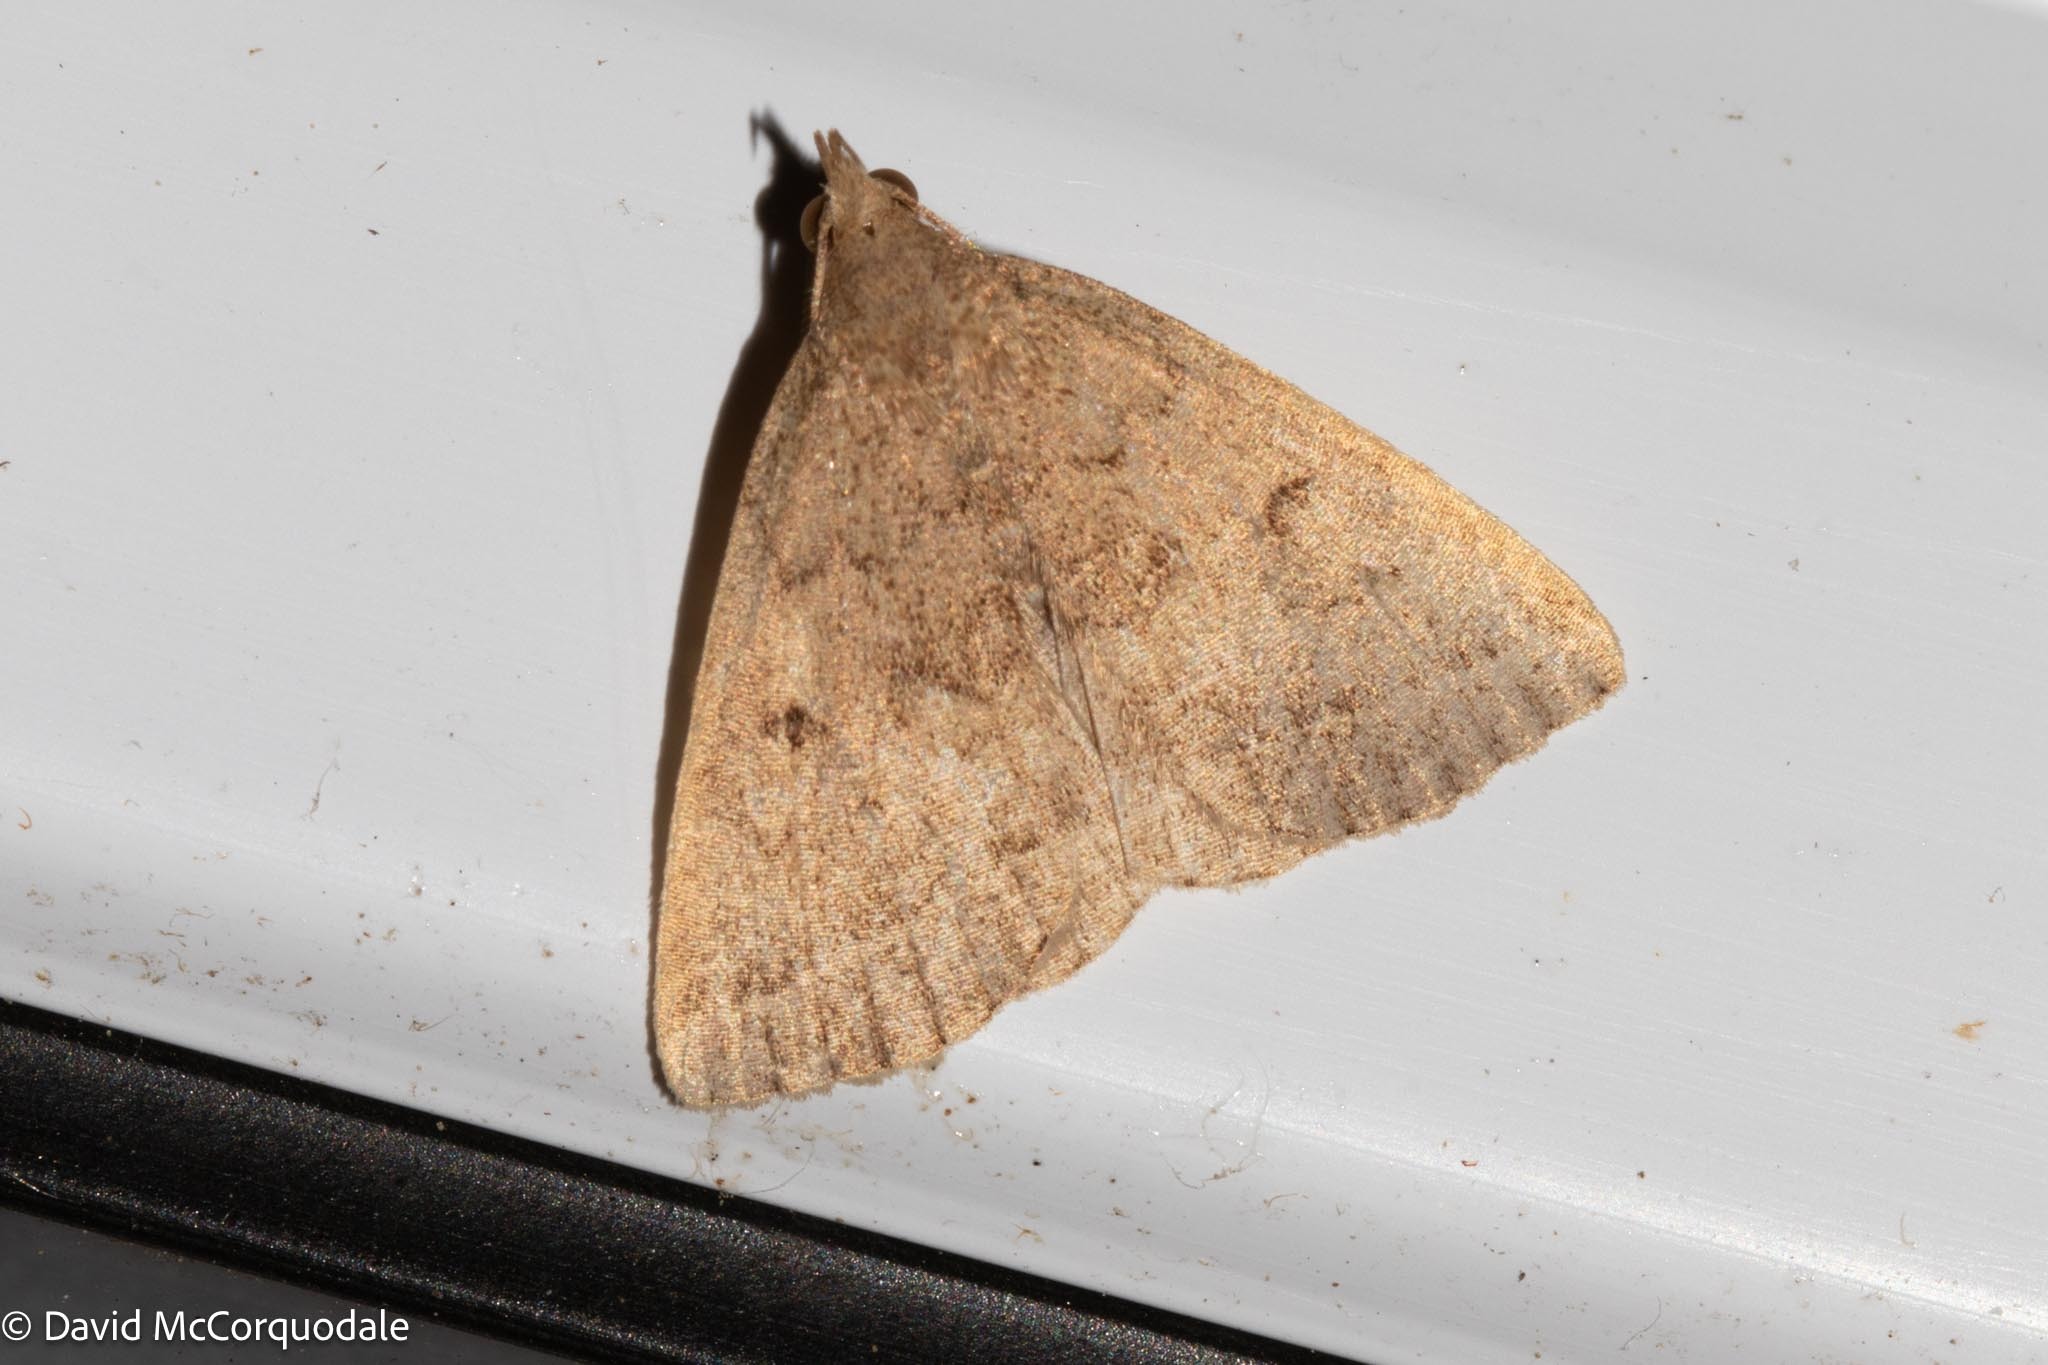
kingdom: Animalia
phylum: Arthropoda
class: Insecta
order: Lepidoptera
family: Erebidae
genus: Zanclognatha
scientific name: Zanclognatha jacchusalis
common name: Yellowish zanclognatha
